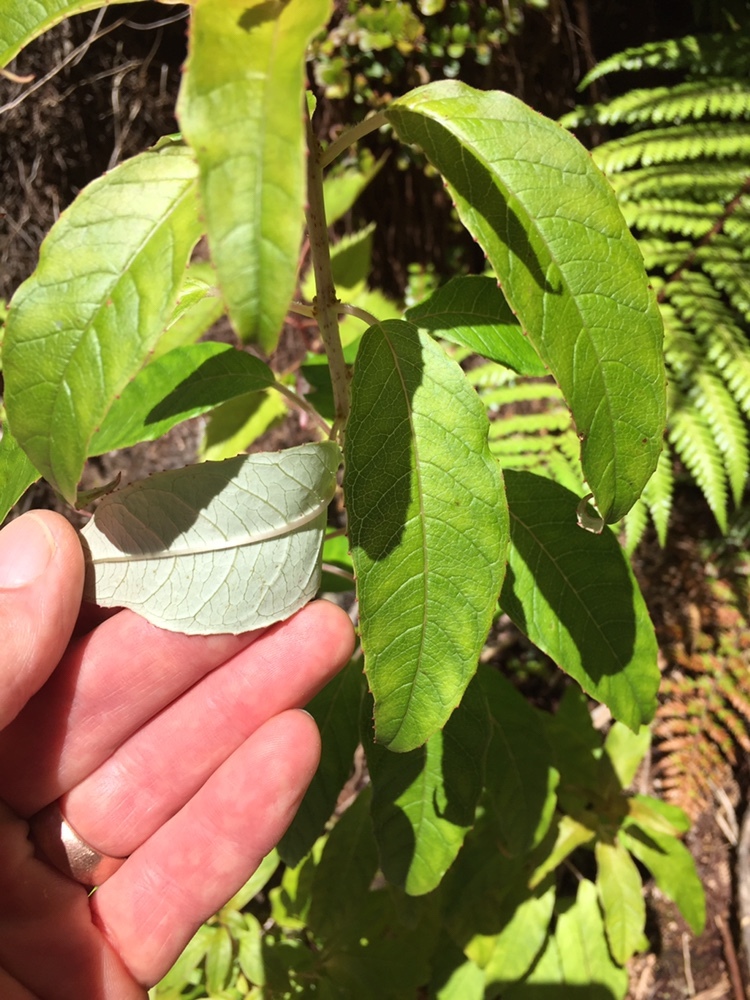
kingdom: Plantae
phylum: Tracheophyta
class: Magnoliopsida
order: Myrtales
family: Onagraceae
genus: Fuchsia
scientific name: Fuchsia excorticata
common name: Tree fuchsia
